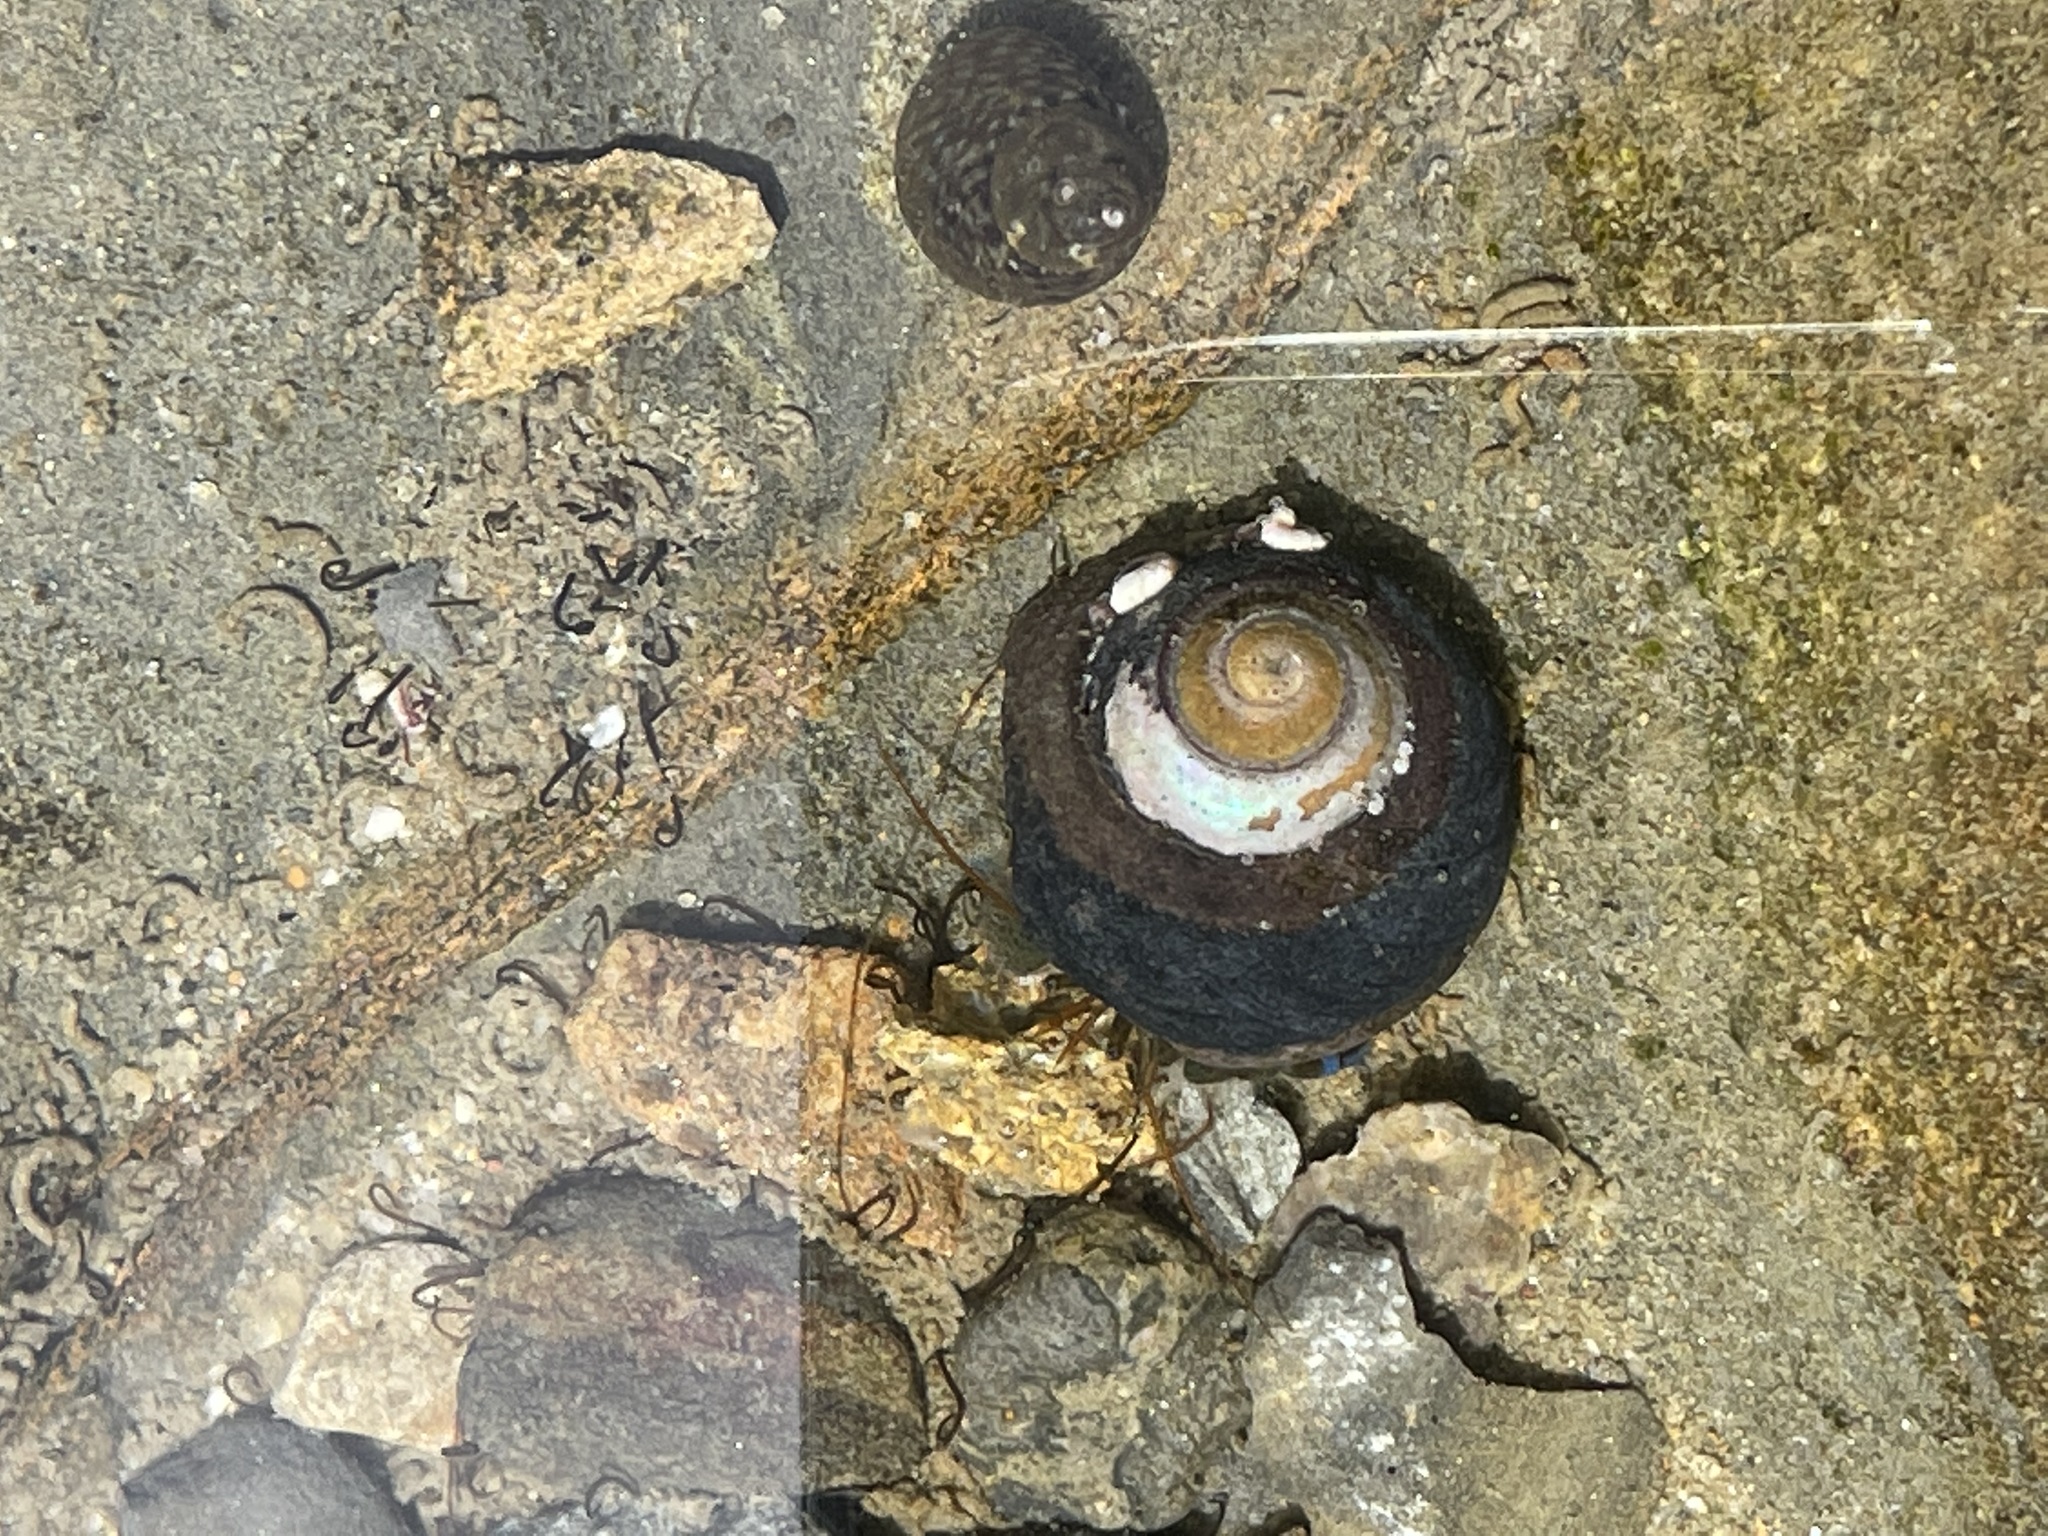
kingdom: Animalia
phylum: Arthropoda
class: Malacostraca
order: Decapoda
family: Paguridae
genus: Pagurus
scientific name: Pagurus samuelis
